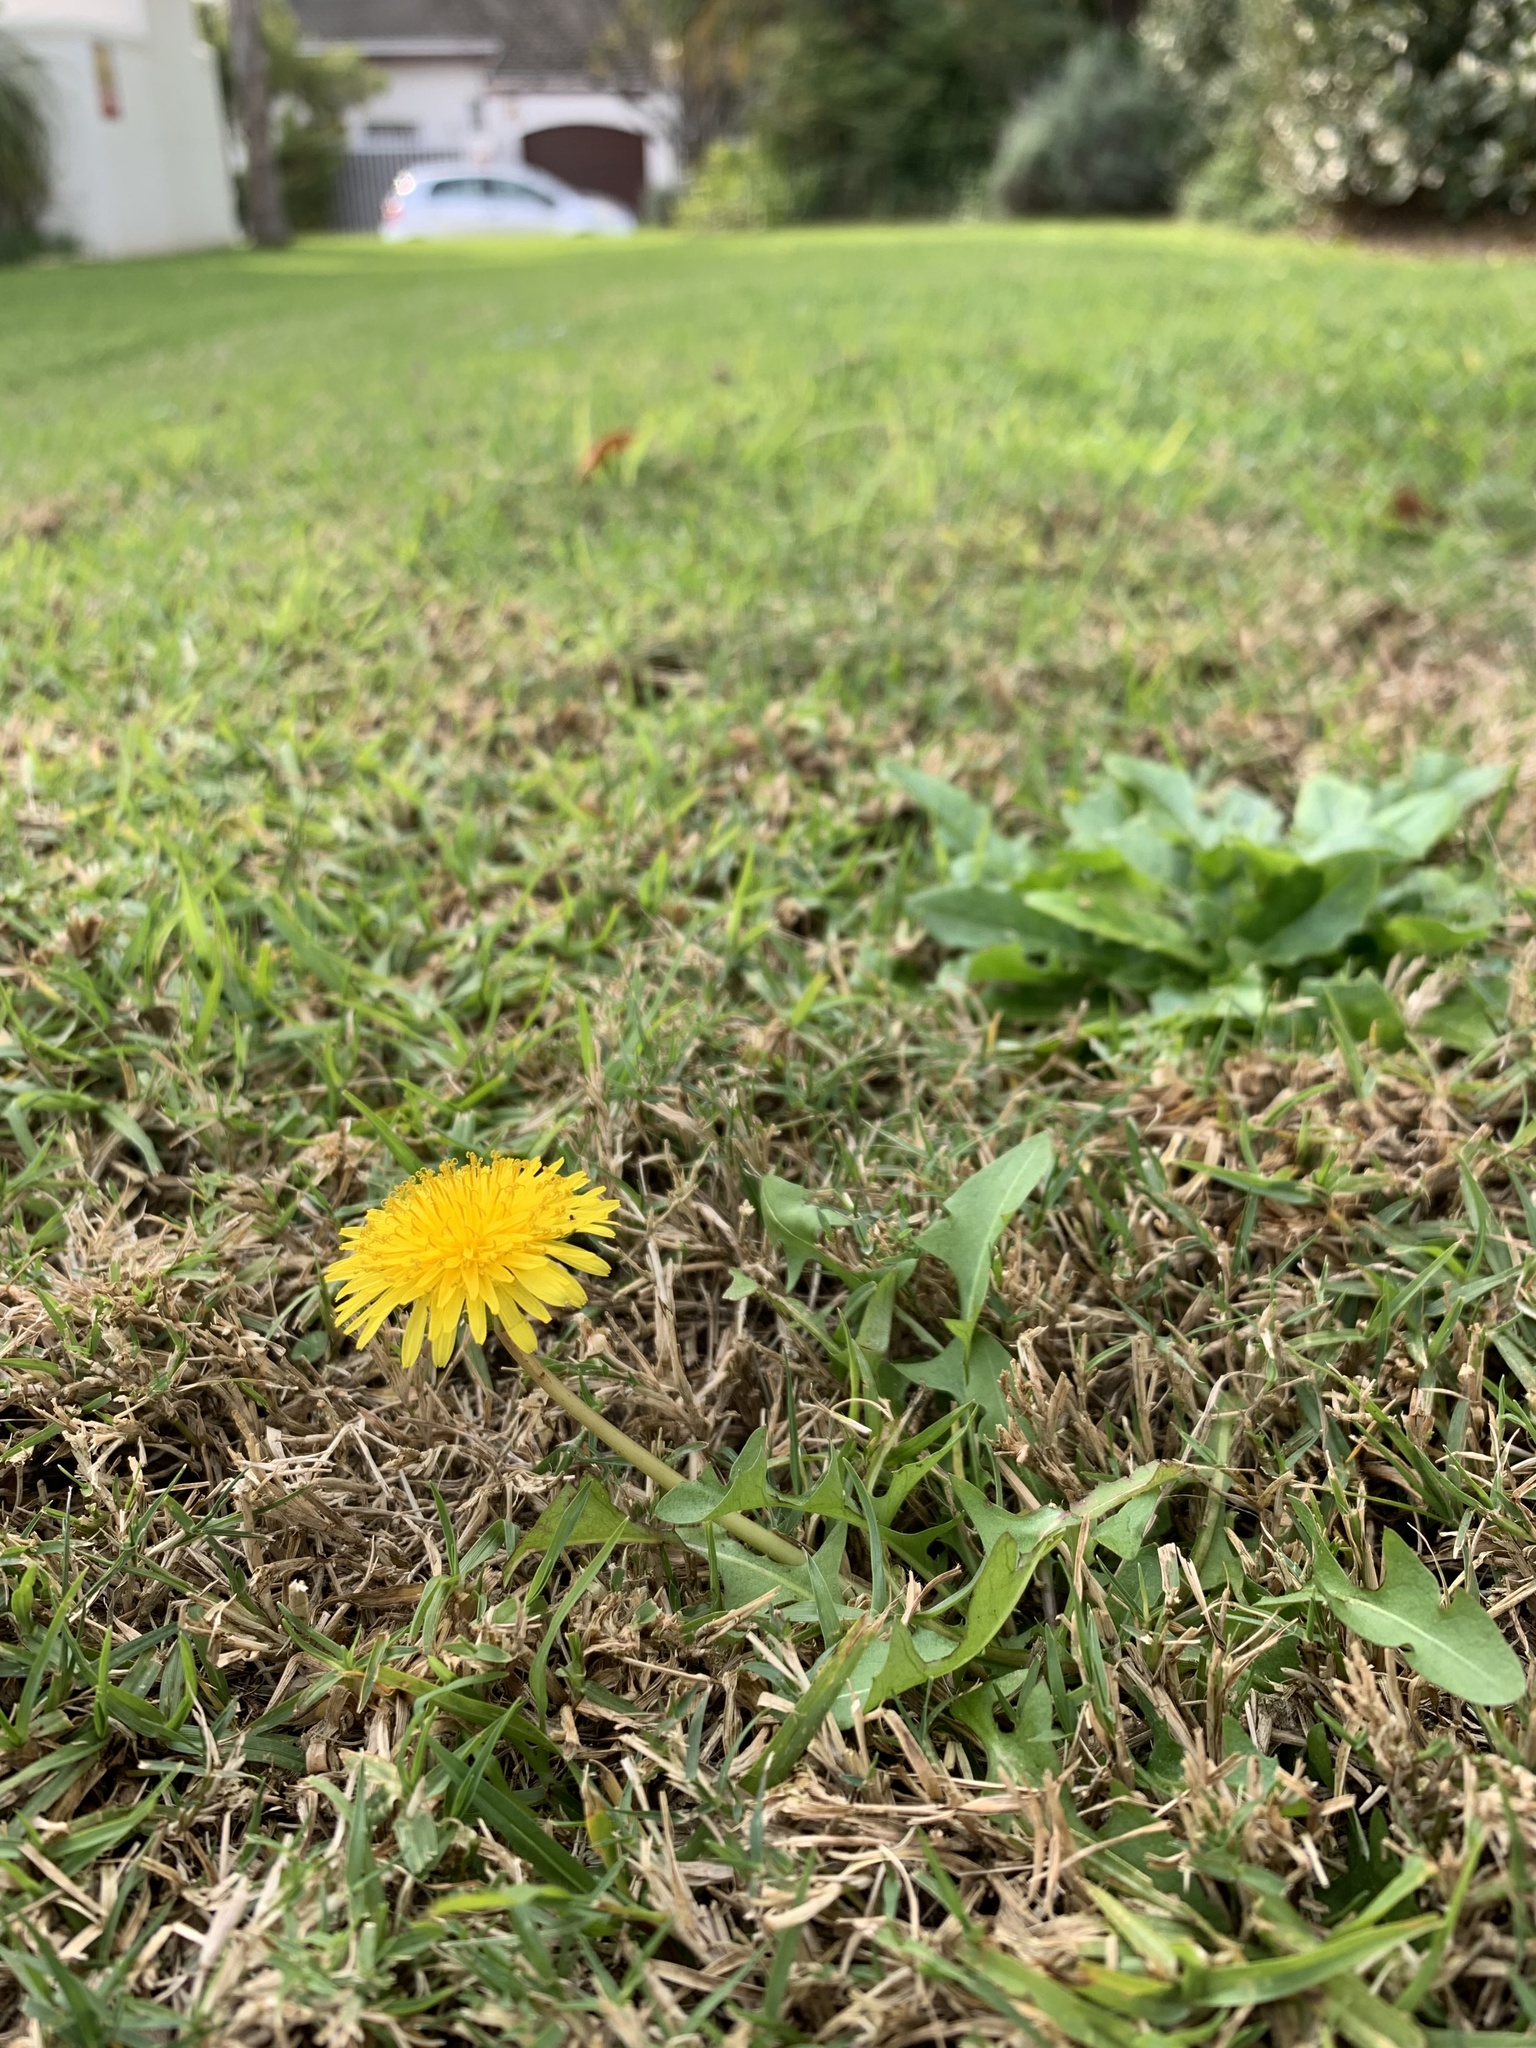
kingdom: Plantae
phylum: Tracheophyta
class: Magnoliopsida
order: Asterales
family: Asteraceae
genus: Taraxacum
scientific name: Taraxacum officinale
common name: Common dandelion
